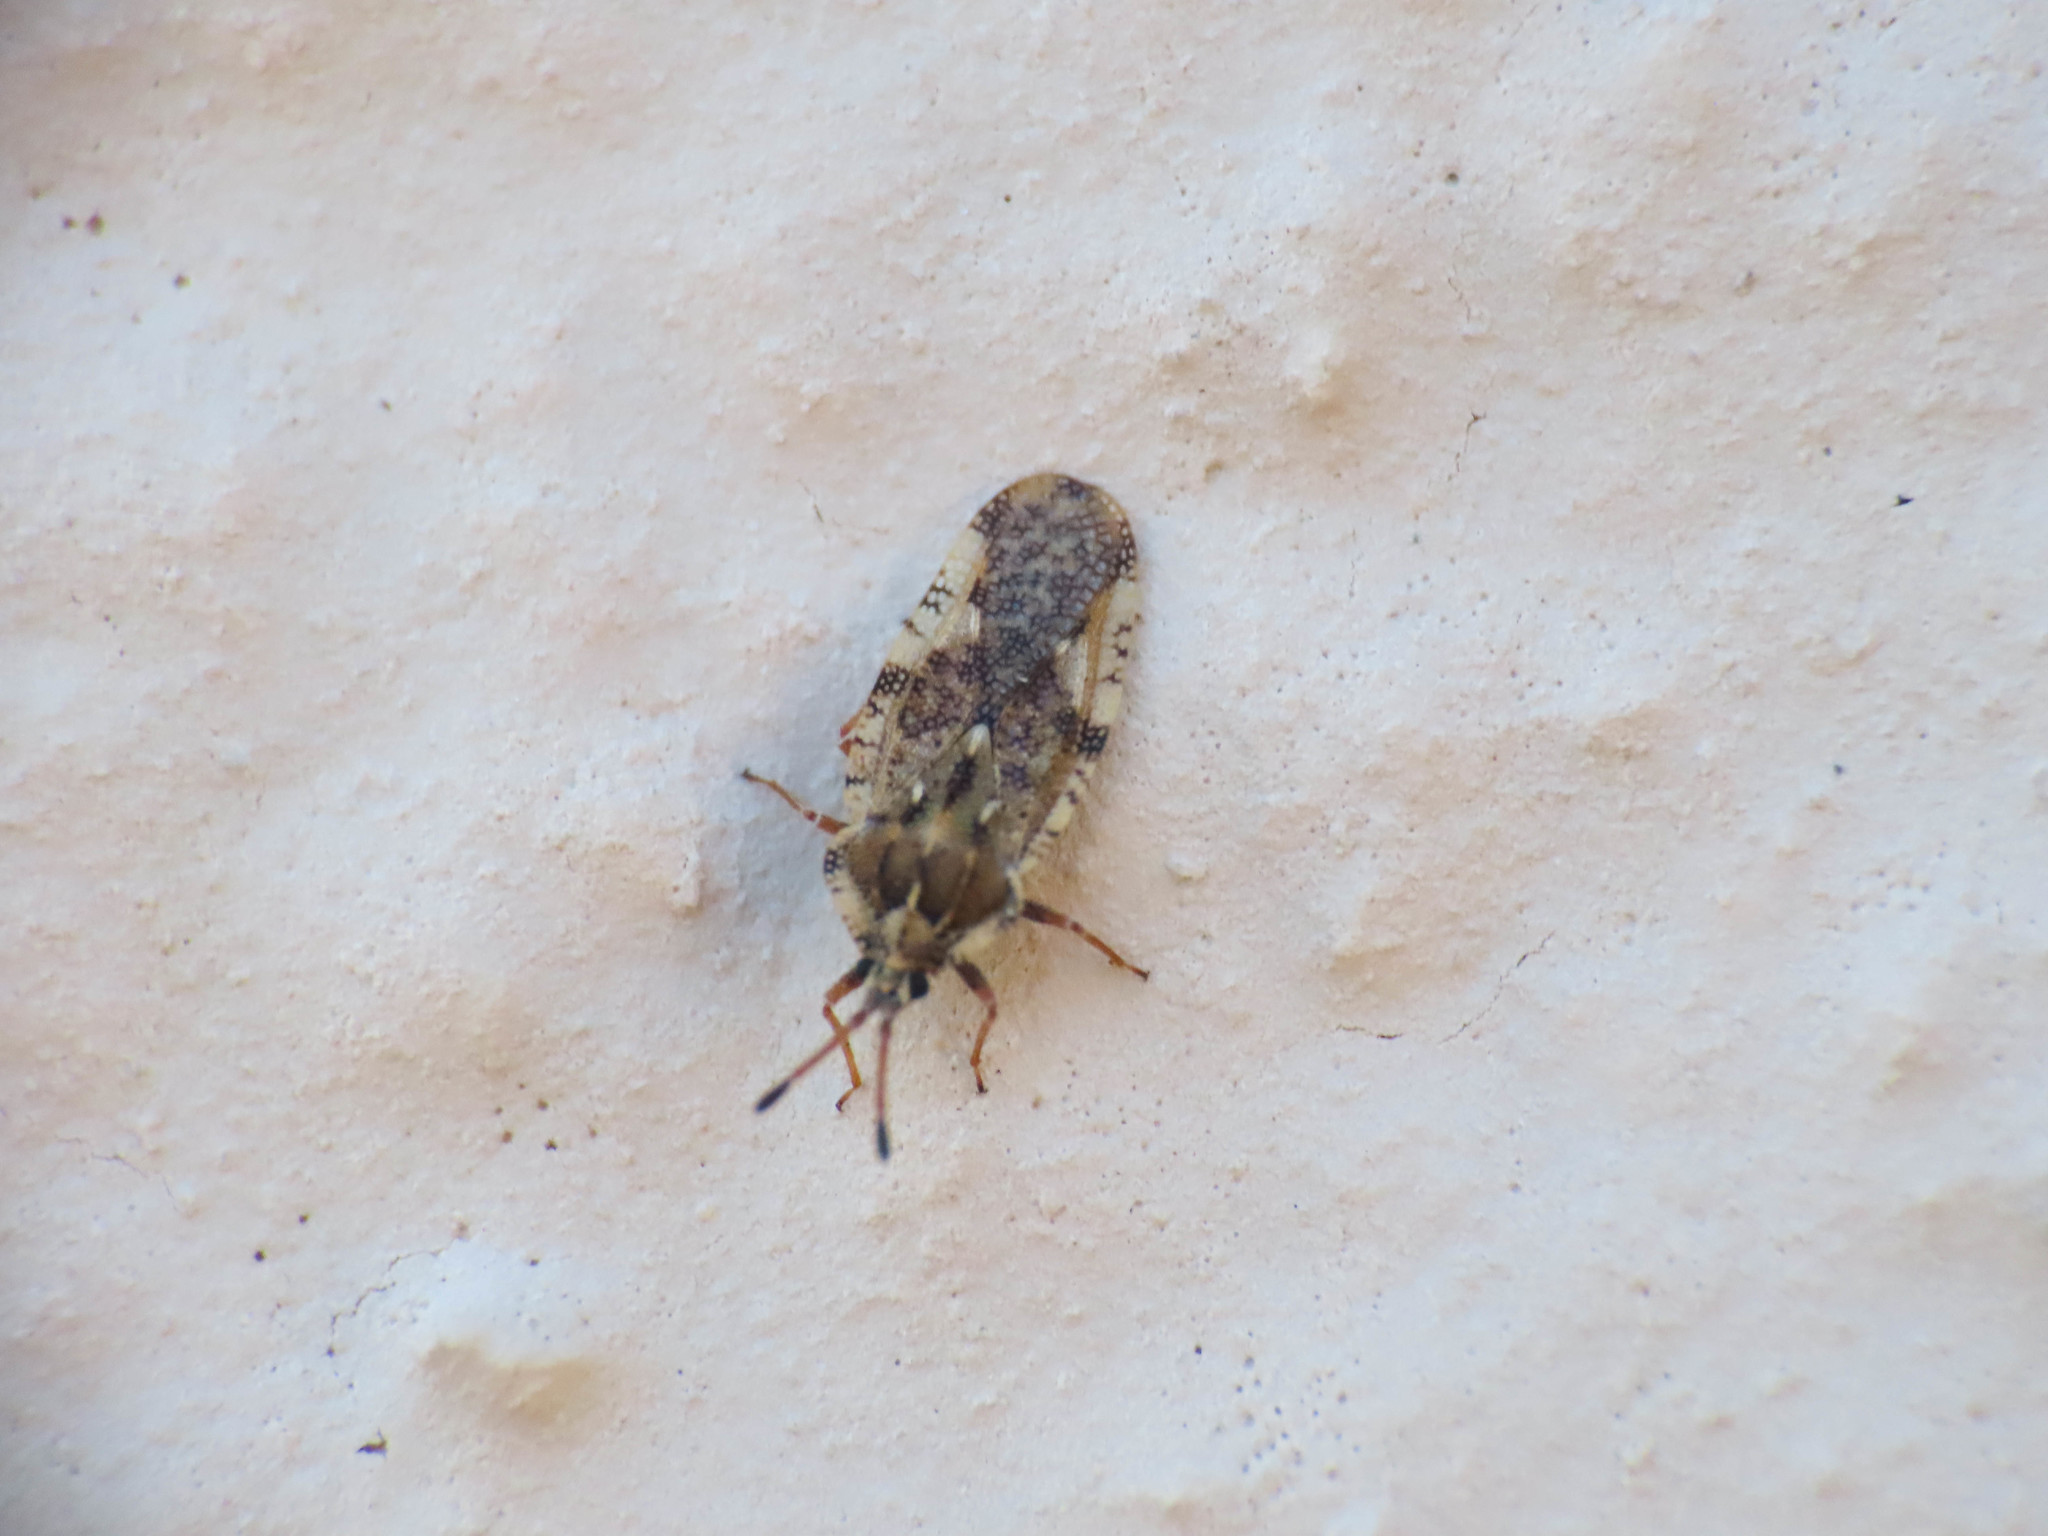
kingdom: Animalia
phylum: Arthropoda
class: Insecta
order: Hemiptera
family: Tingidae
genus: Tingis
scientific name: Tingis cardui
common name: Spear thistle lacebug
